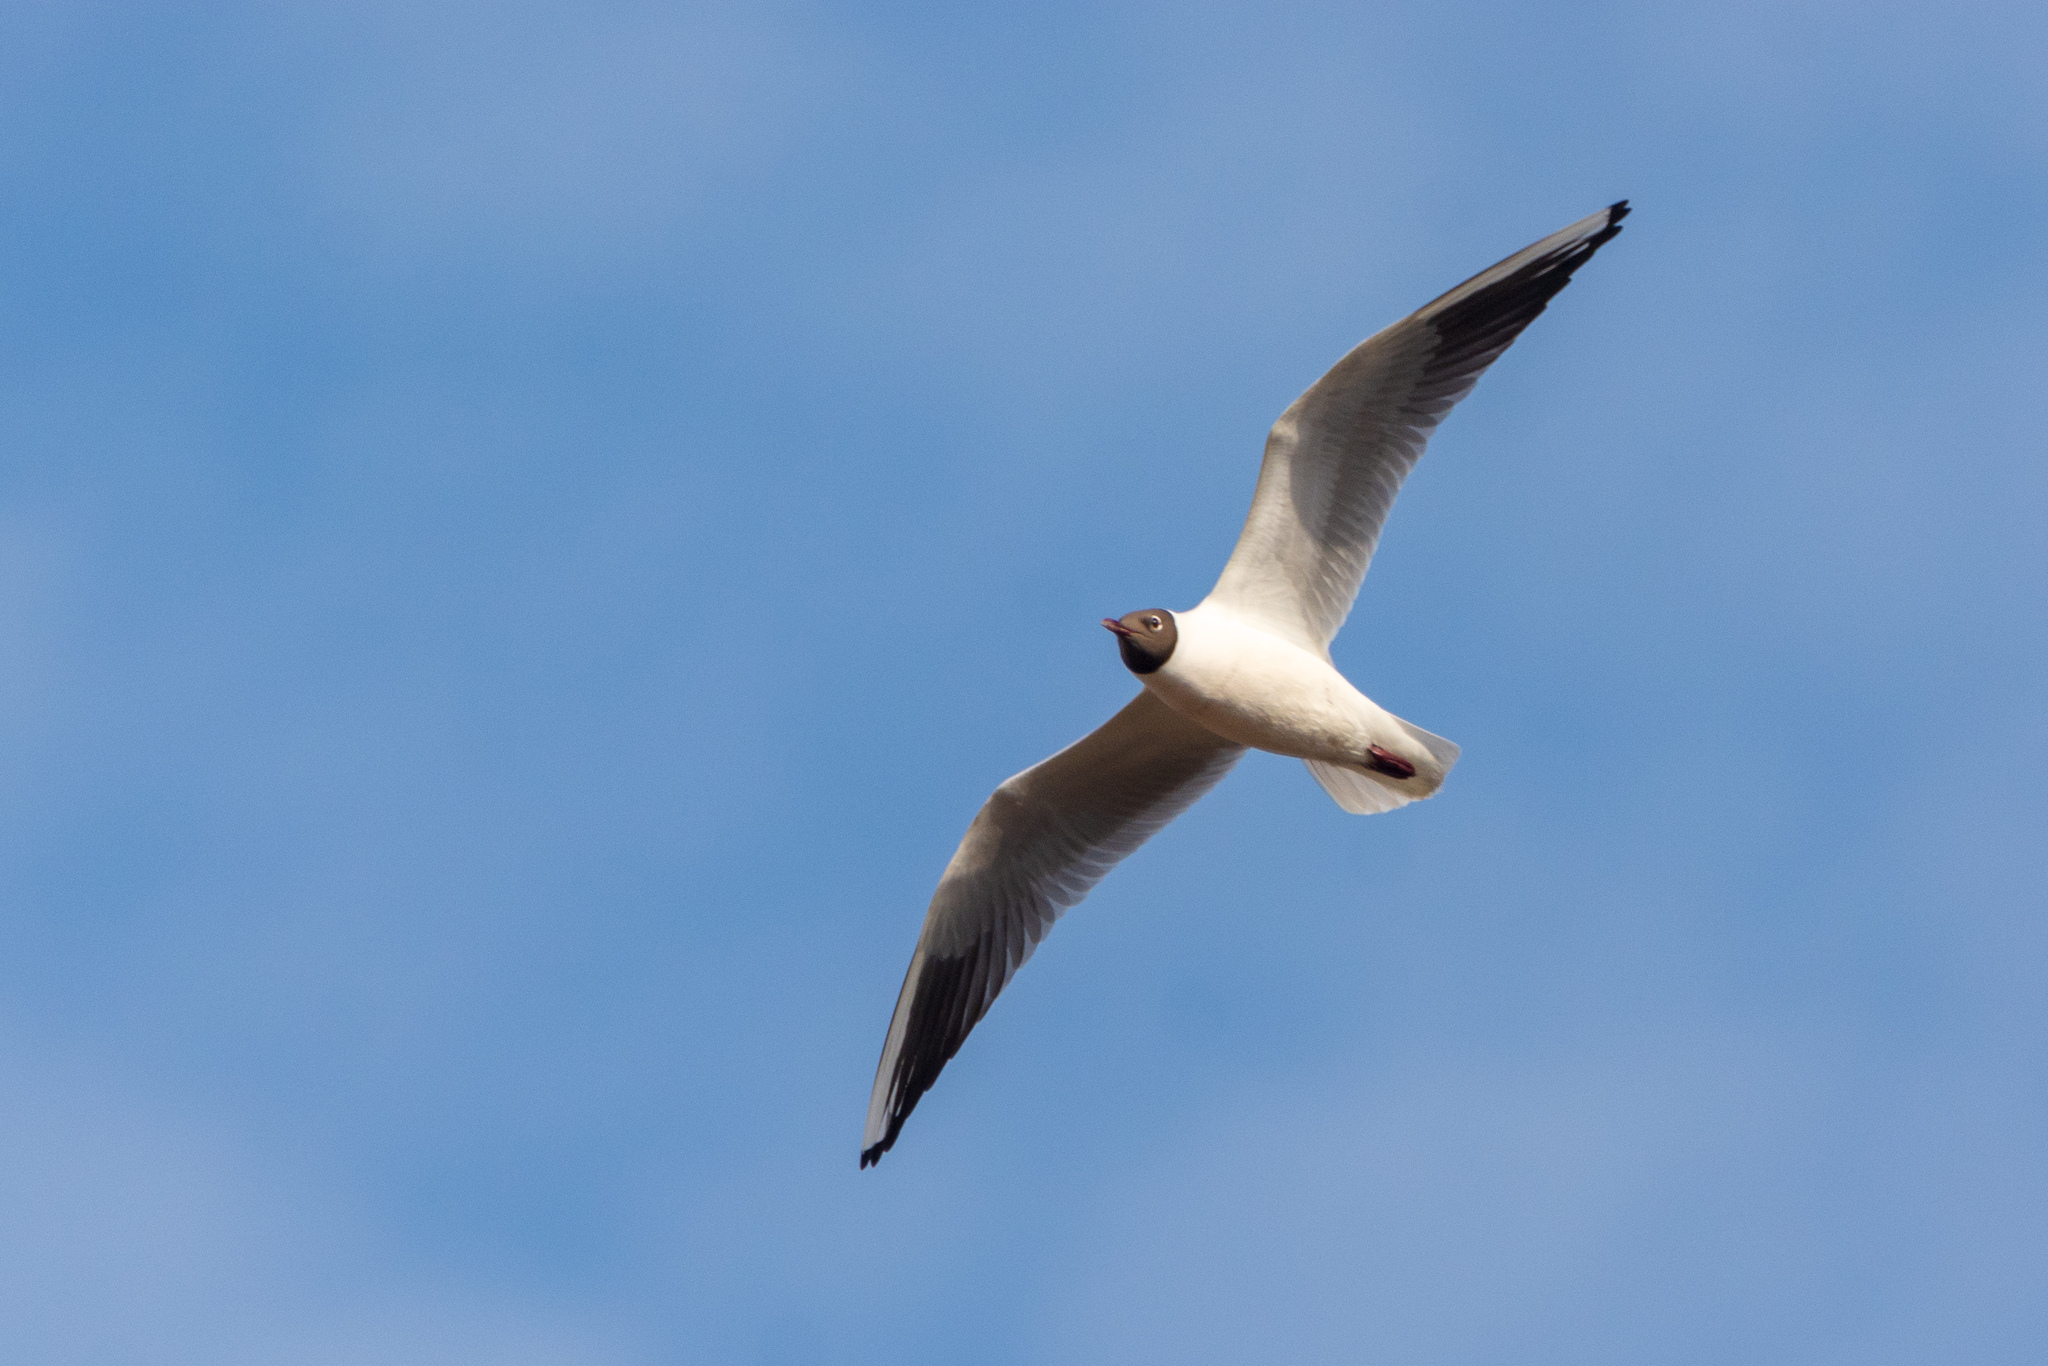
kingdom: Animalia
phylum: Chordata
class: Aves
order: Charadriiformes
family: Laridae
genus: Chroicocephalus
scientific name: Chroicocephalus ridibundus
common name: Black-headed gull
